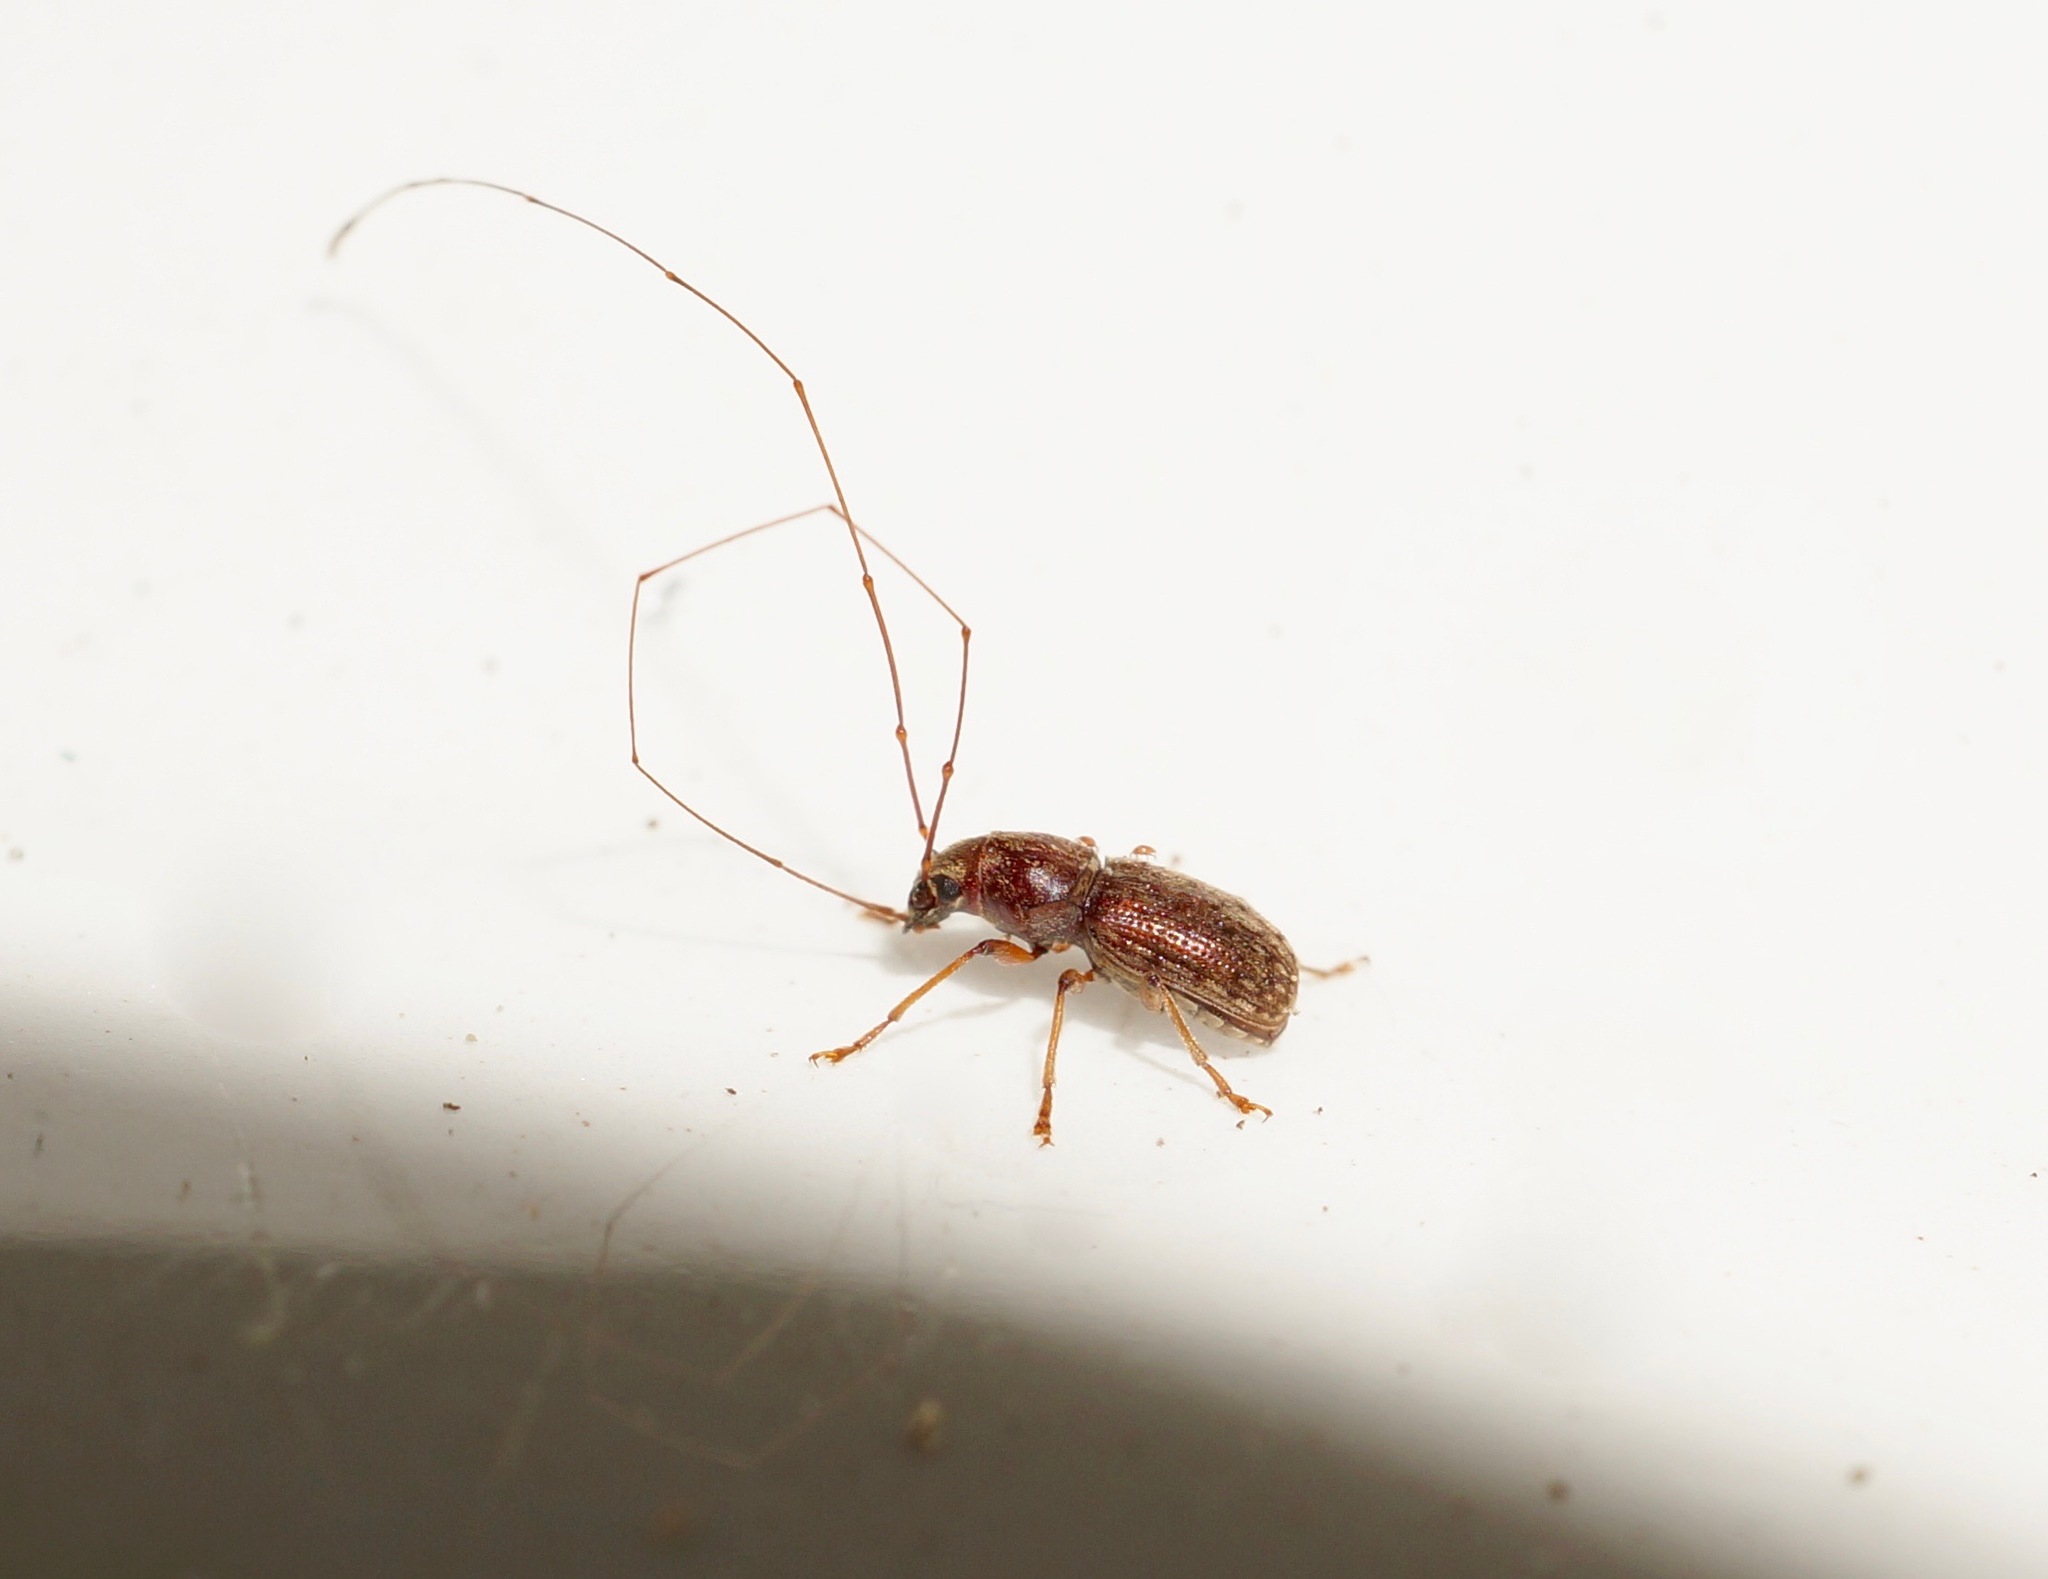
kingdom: Animalia
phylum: Arthropoda
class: Insecta
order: Coleoptera
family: Anthribidae
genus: Arecopais
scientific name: Arecopais spectabilis
